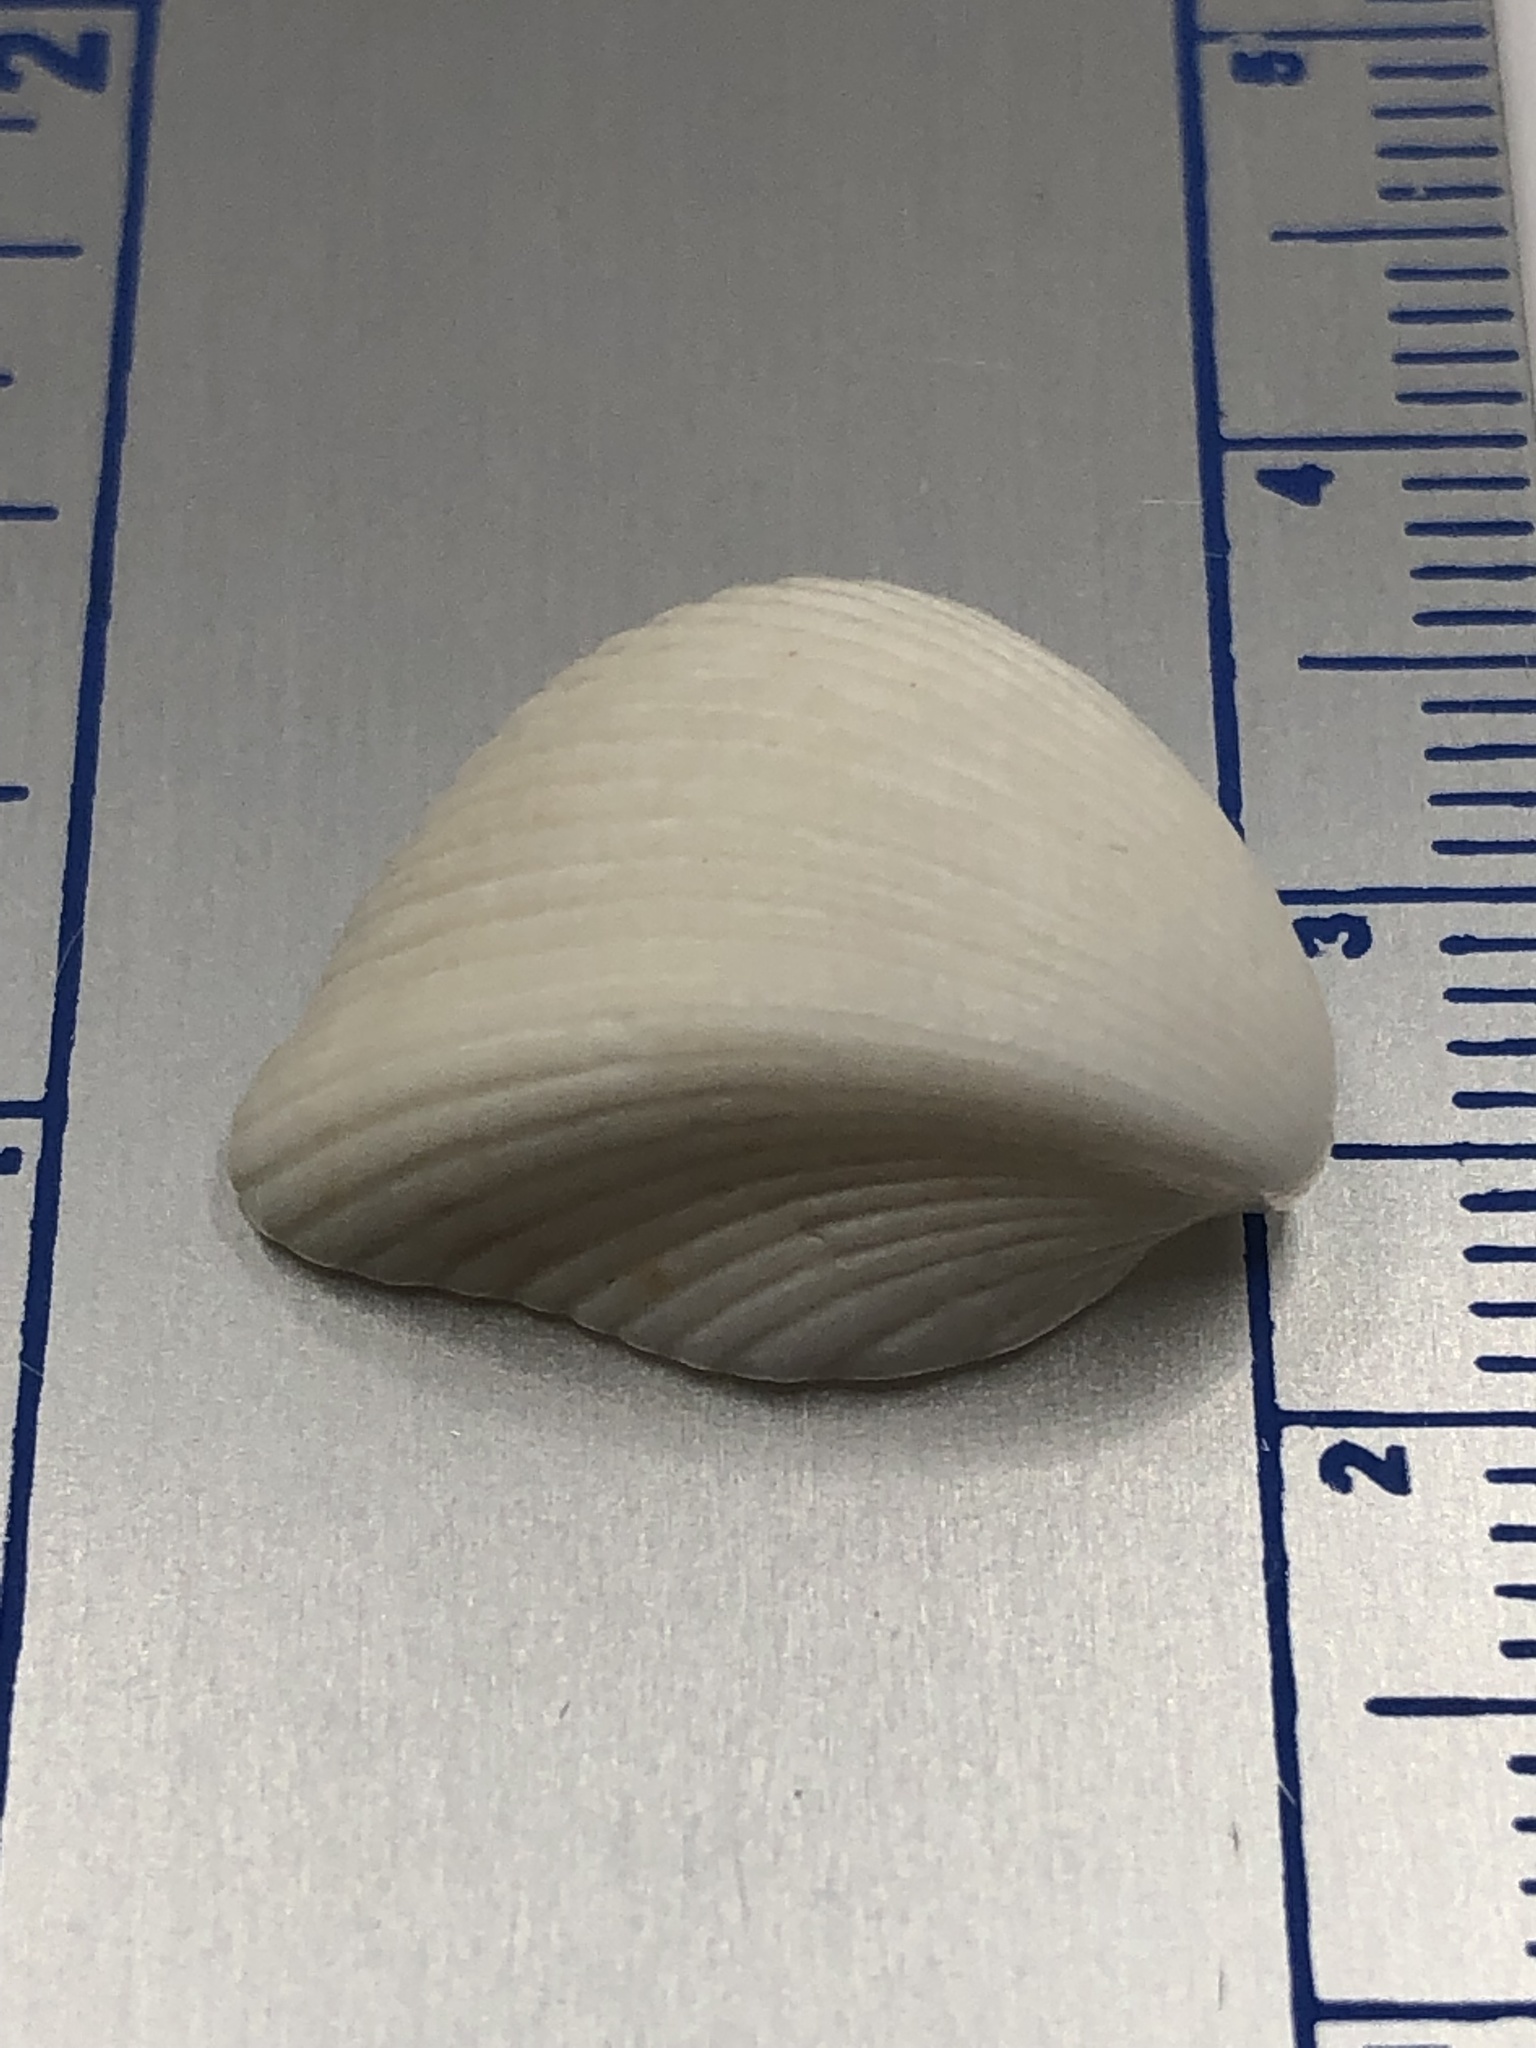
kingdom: Animalia
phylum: Mollusca
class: Bivalvia
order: Cardiida
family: Cardiidae
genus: Americardia
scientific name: Americardia media
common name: Atlantic strawberry-cockle
